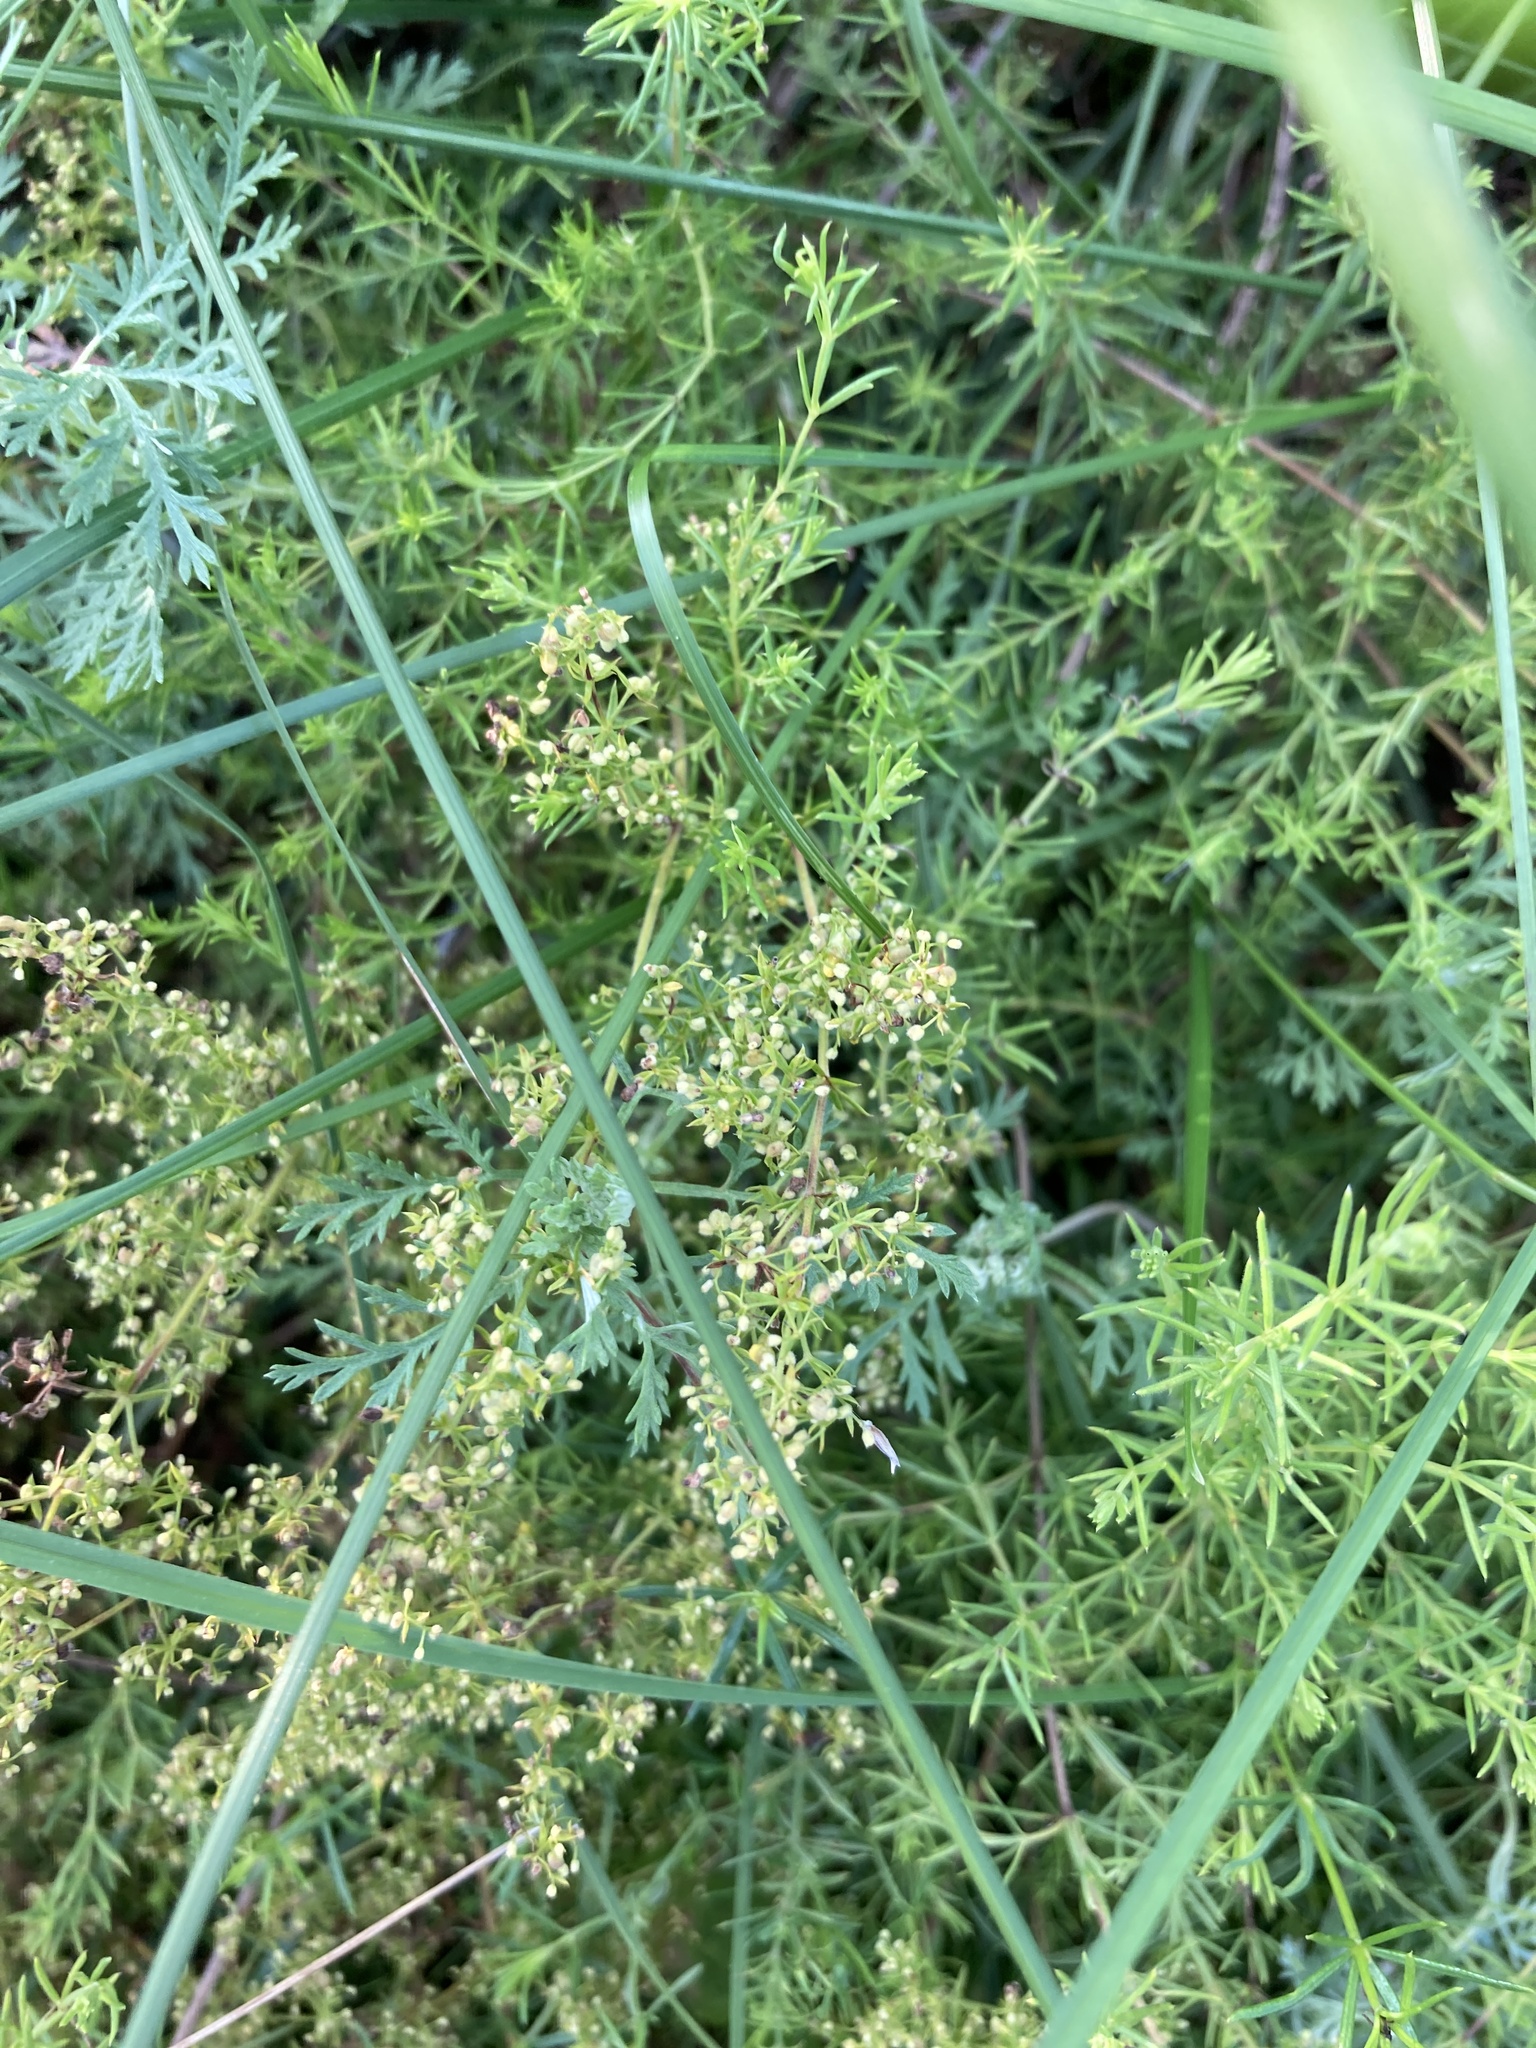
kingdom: Plantae
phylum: Tracheophyta
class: Magnoliopsida
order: Gentianales
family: Rubiaceae
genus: Galium
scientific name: Galium verum
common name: Lady's bedstraw
